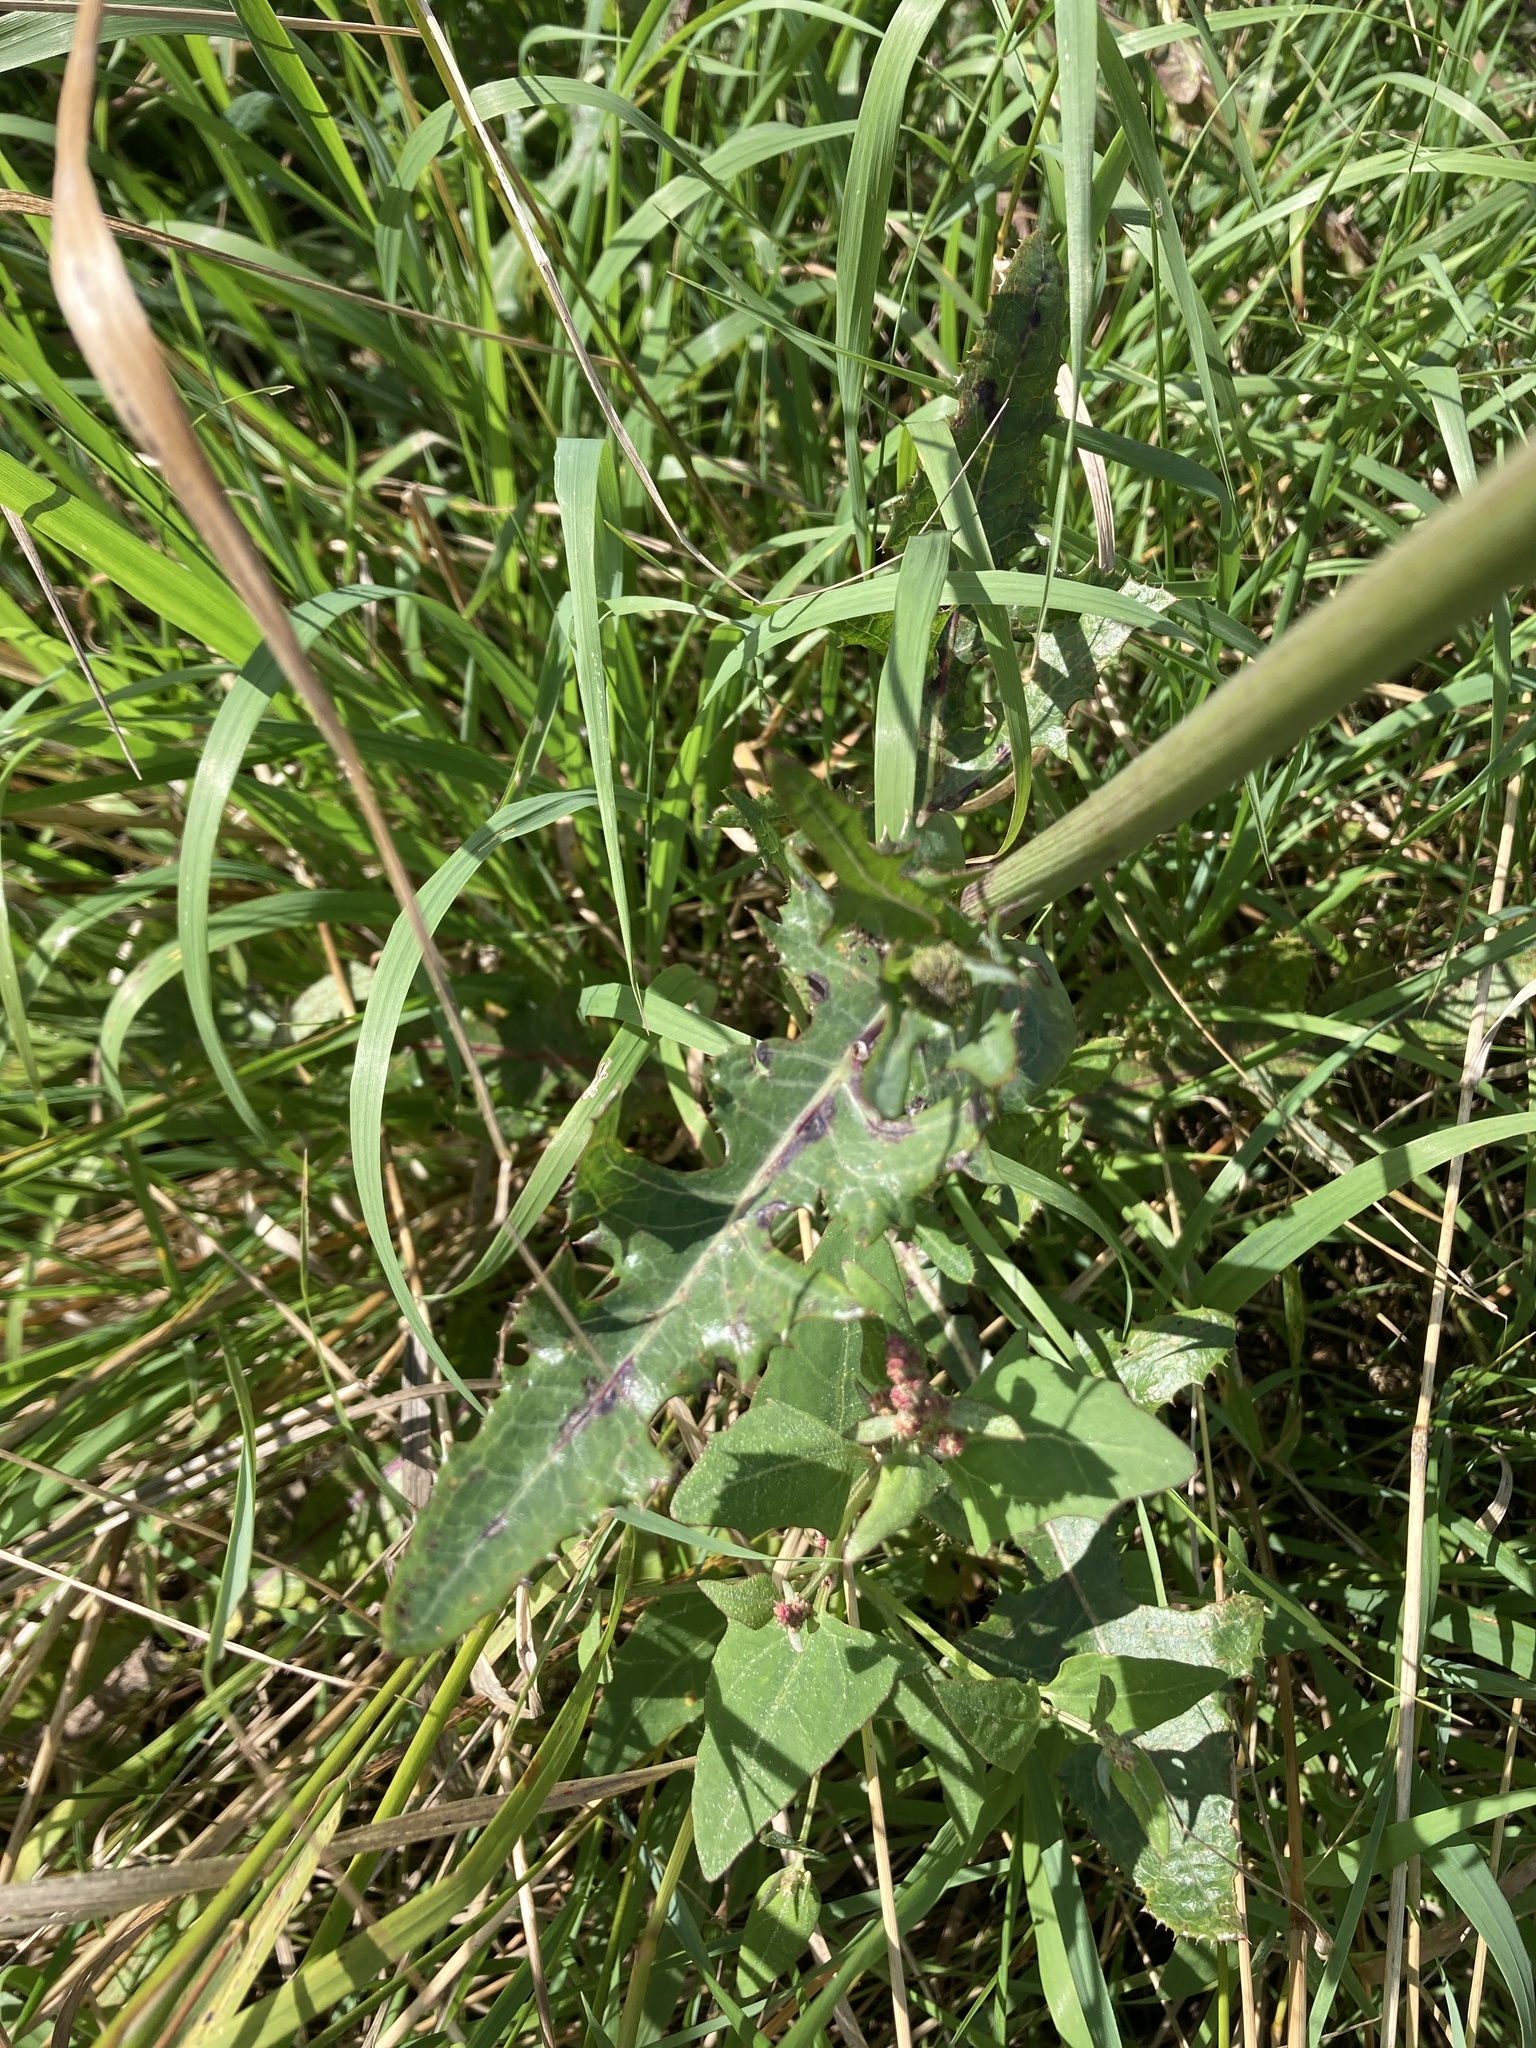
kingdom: Plantae
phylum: Tracheophyta
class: Magnoliopsida
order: Asterales
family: Asteraceae
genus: Sonchus
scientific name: Sonchus arvensis
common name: Perennial sow-thistle
